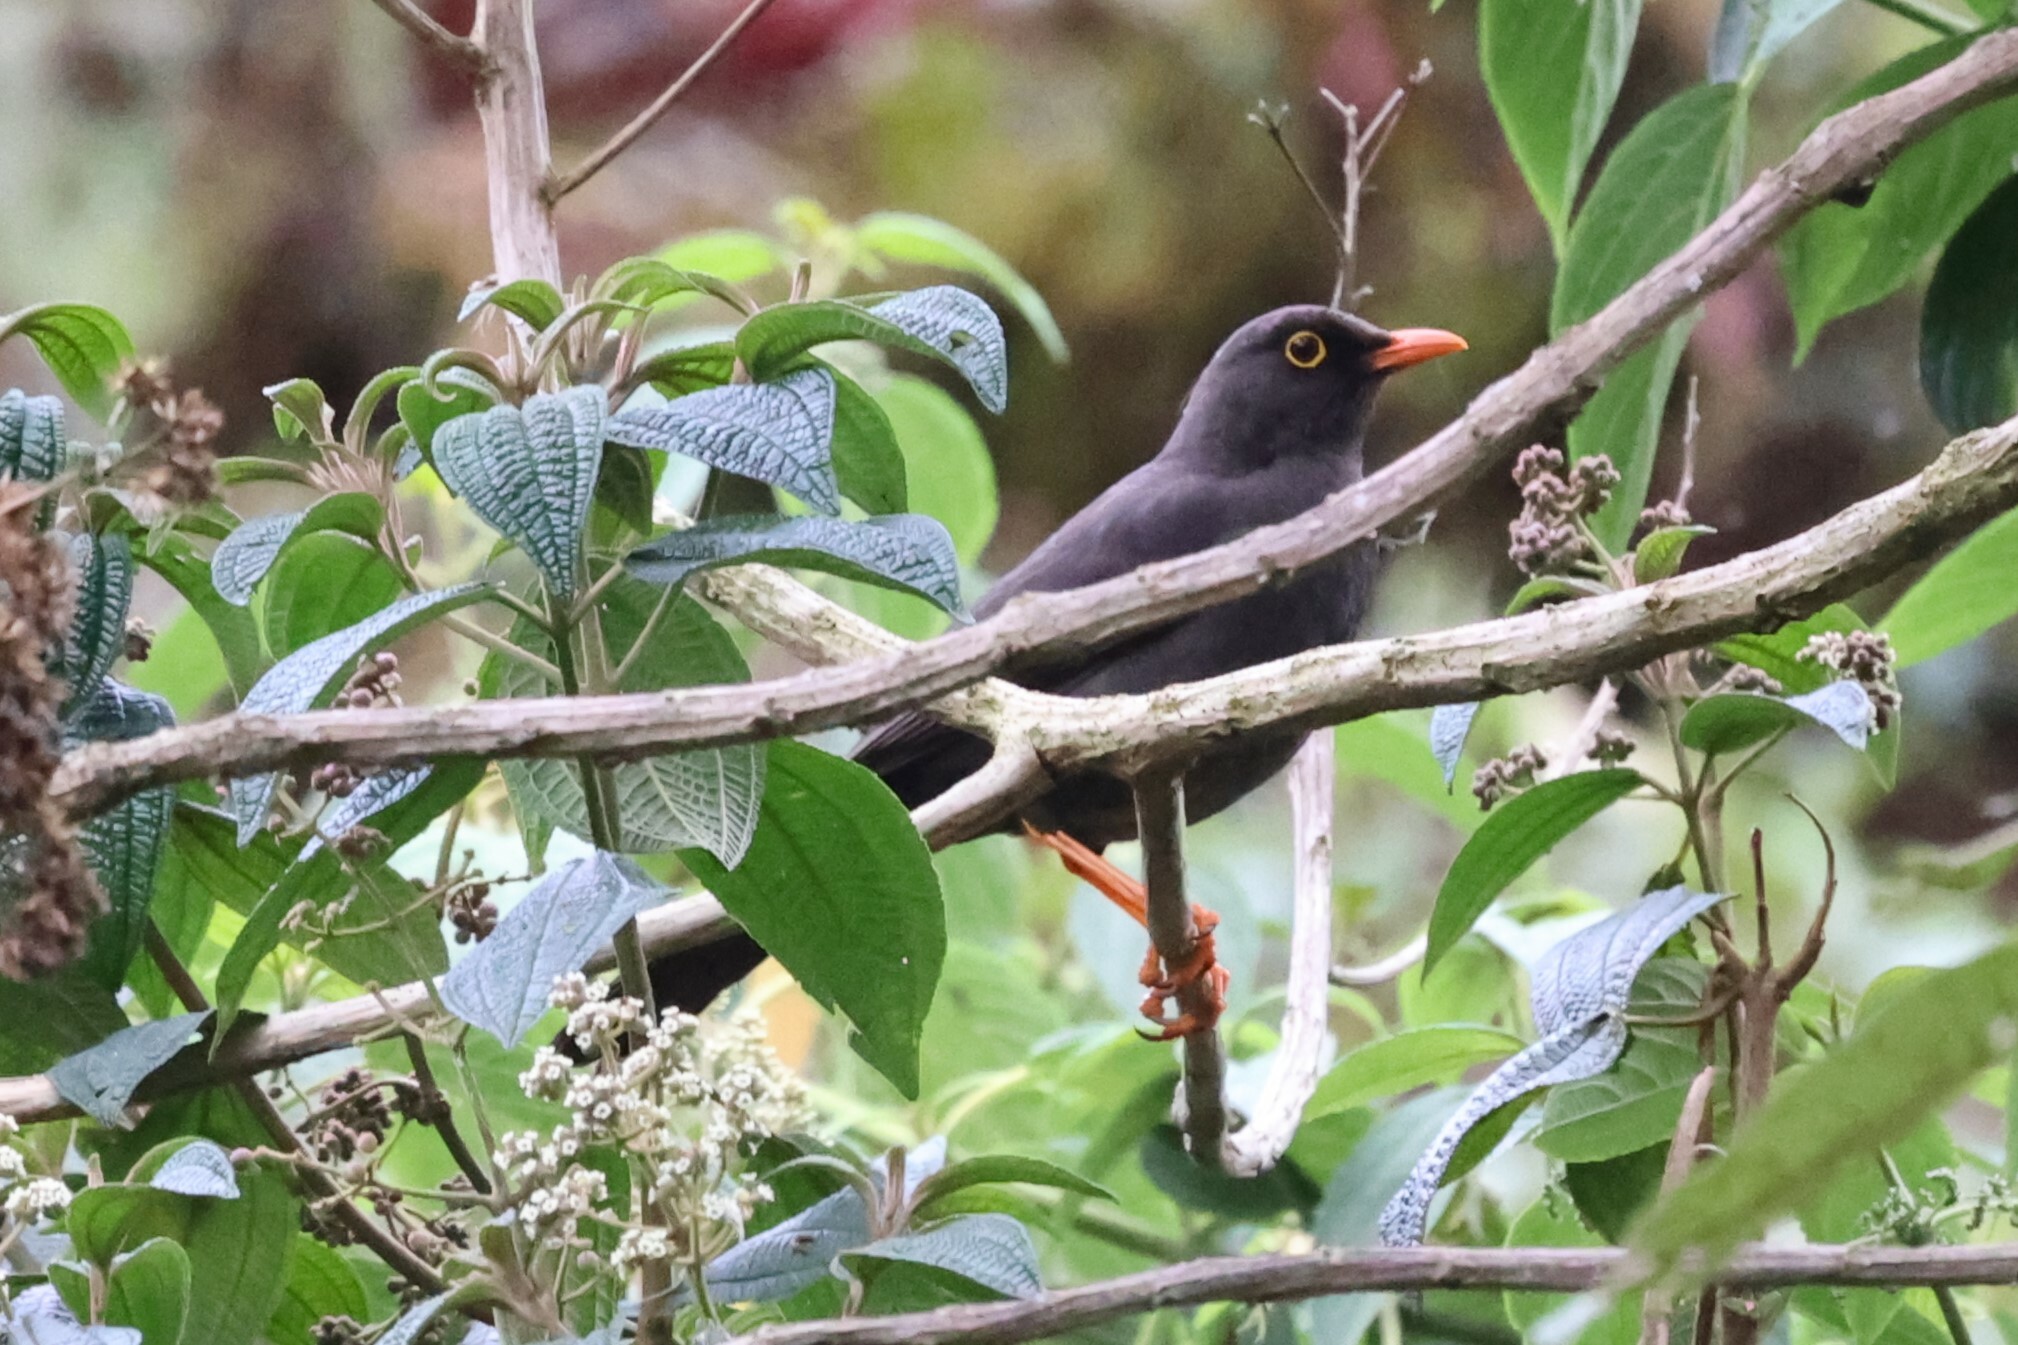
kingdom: Animalia
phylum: Chordata
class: Aves
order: Passeriformes
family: Turdidae
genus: Turdus
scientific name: Turdus fuscater
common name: Great thrush
